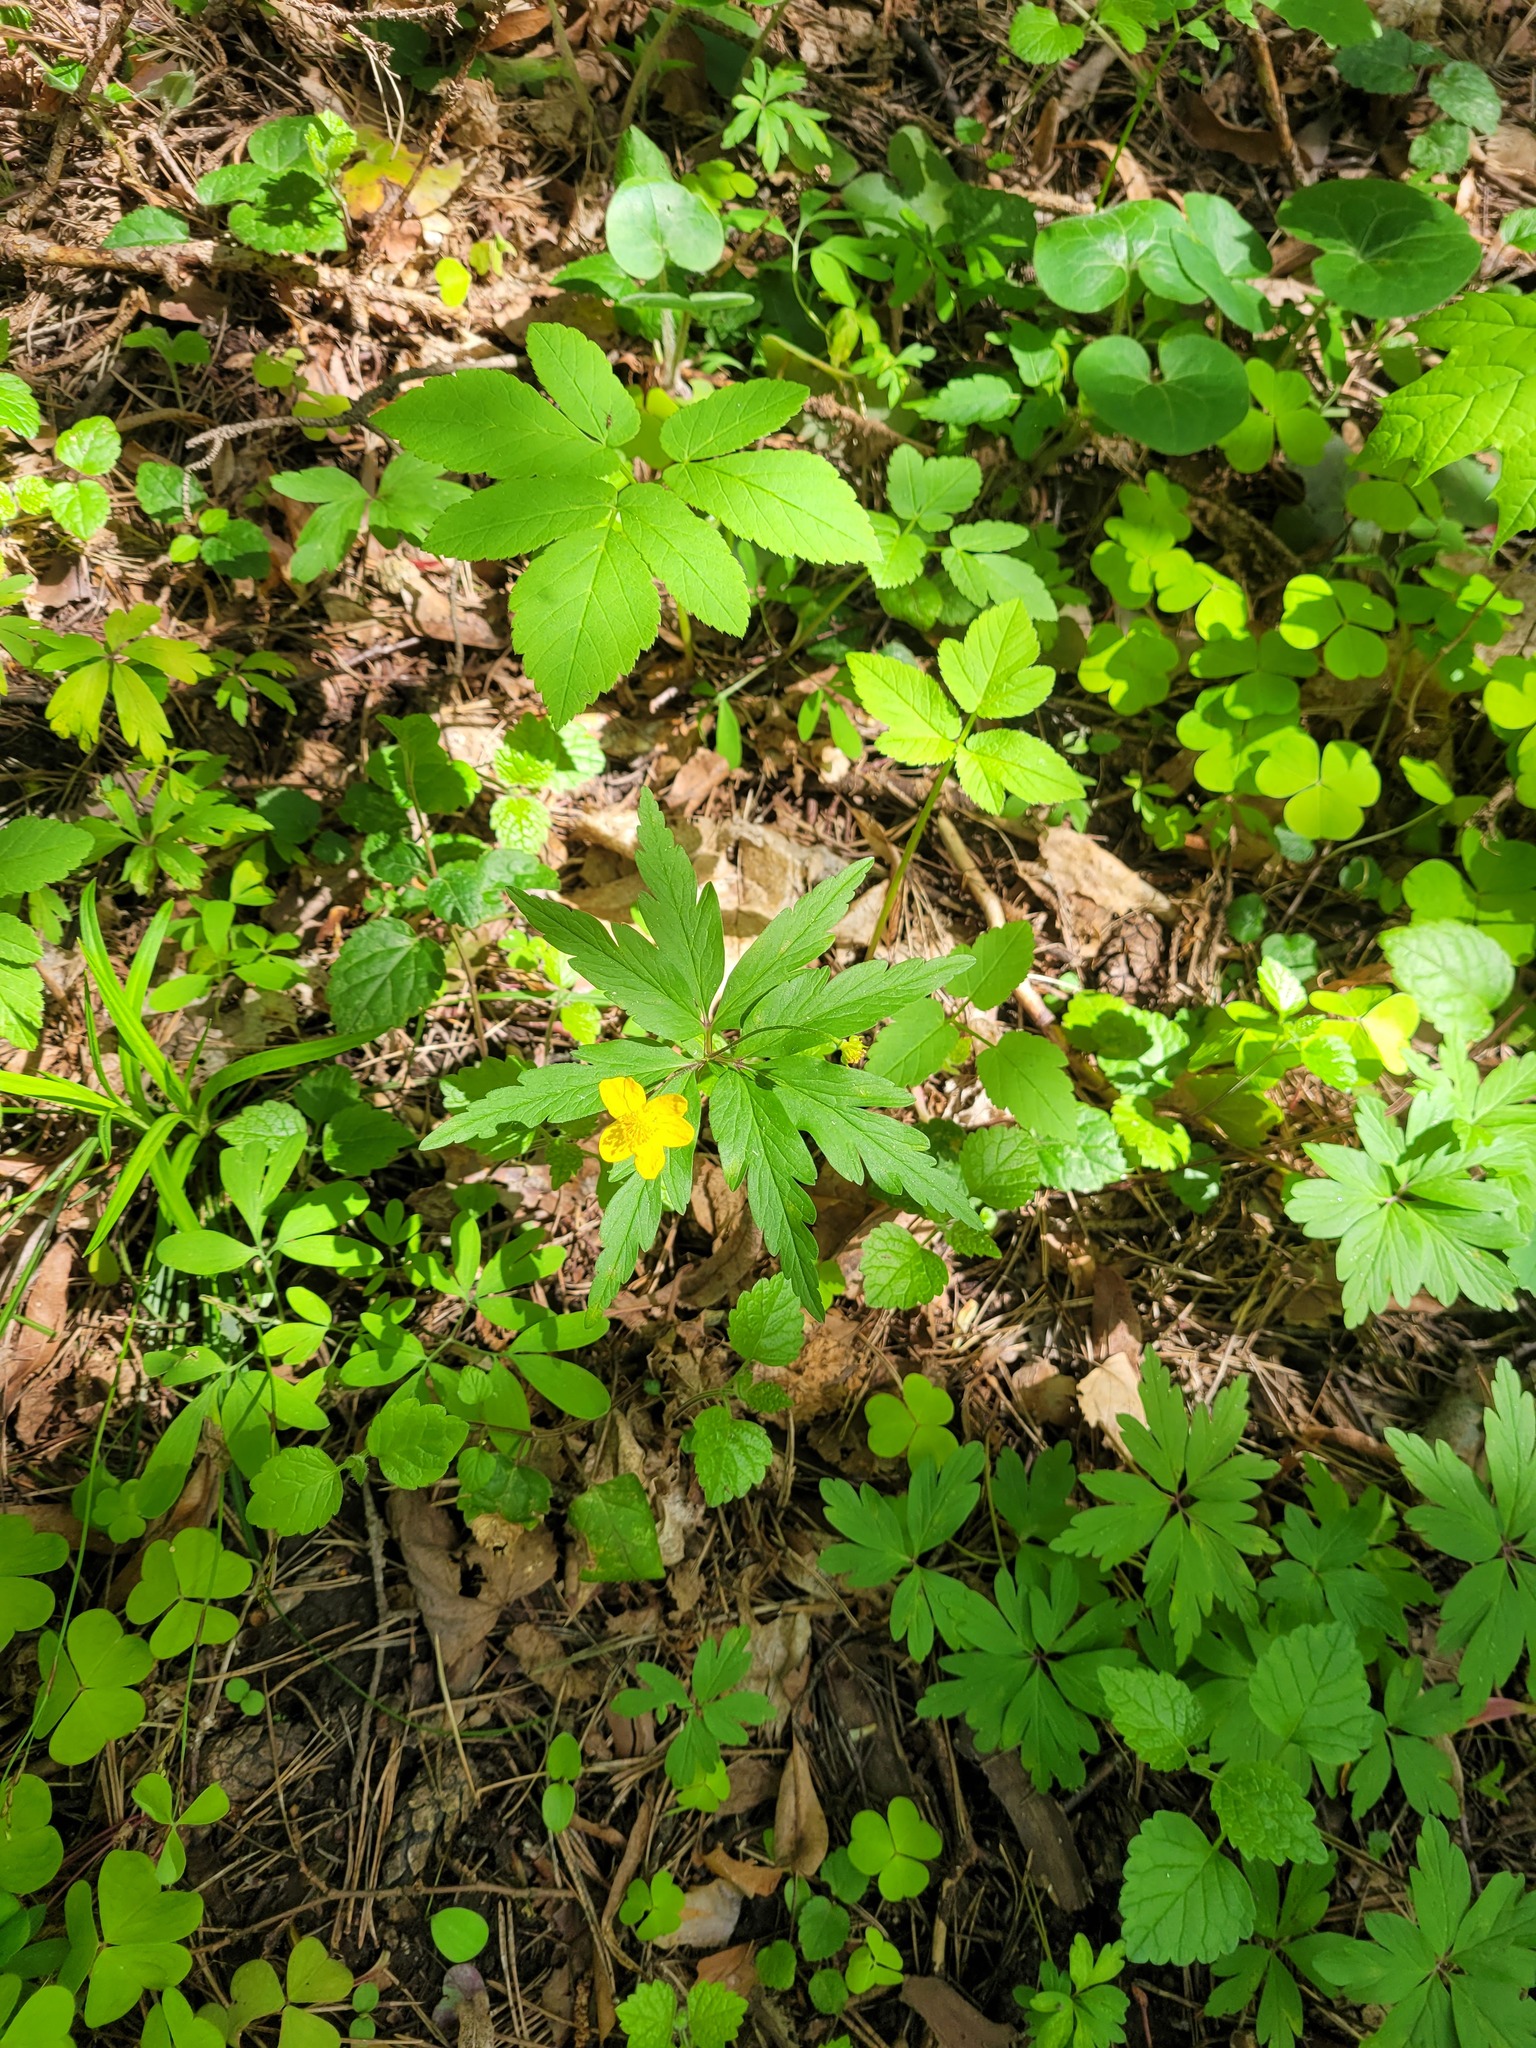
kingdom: Plantae
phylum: Tracheophyta
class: Magnoliopsida
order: Ranunculales
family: Ranunculaceae
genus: Anemone
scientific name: Anemone ranunculoides
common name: Yellow anemone
